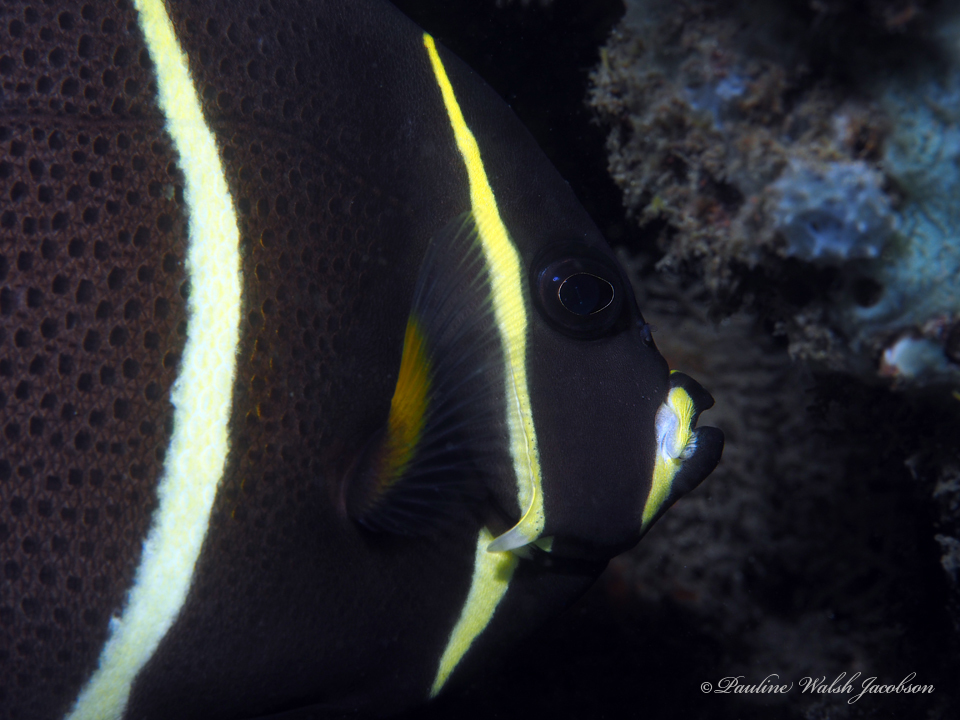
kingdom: Animalia
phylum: Chordata
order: Perciformes
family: Pomacanthidae
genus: Pomacanthus
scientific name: Pomacanthus arcuatus
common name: Gray angelfish
